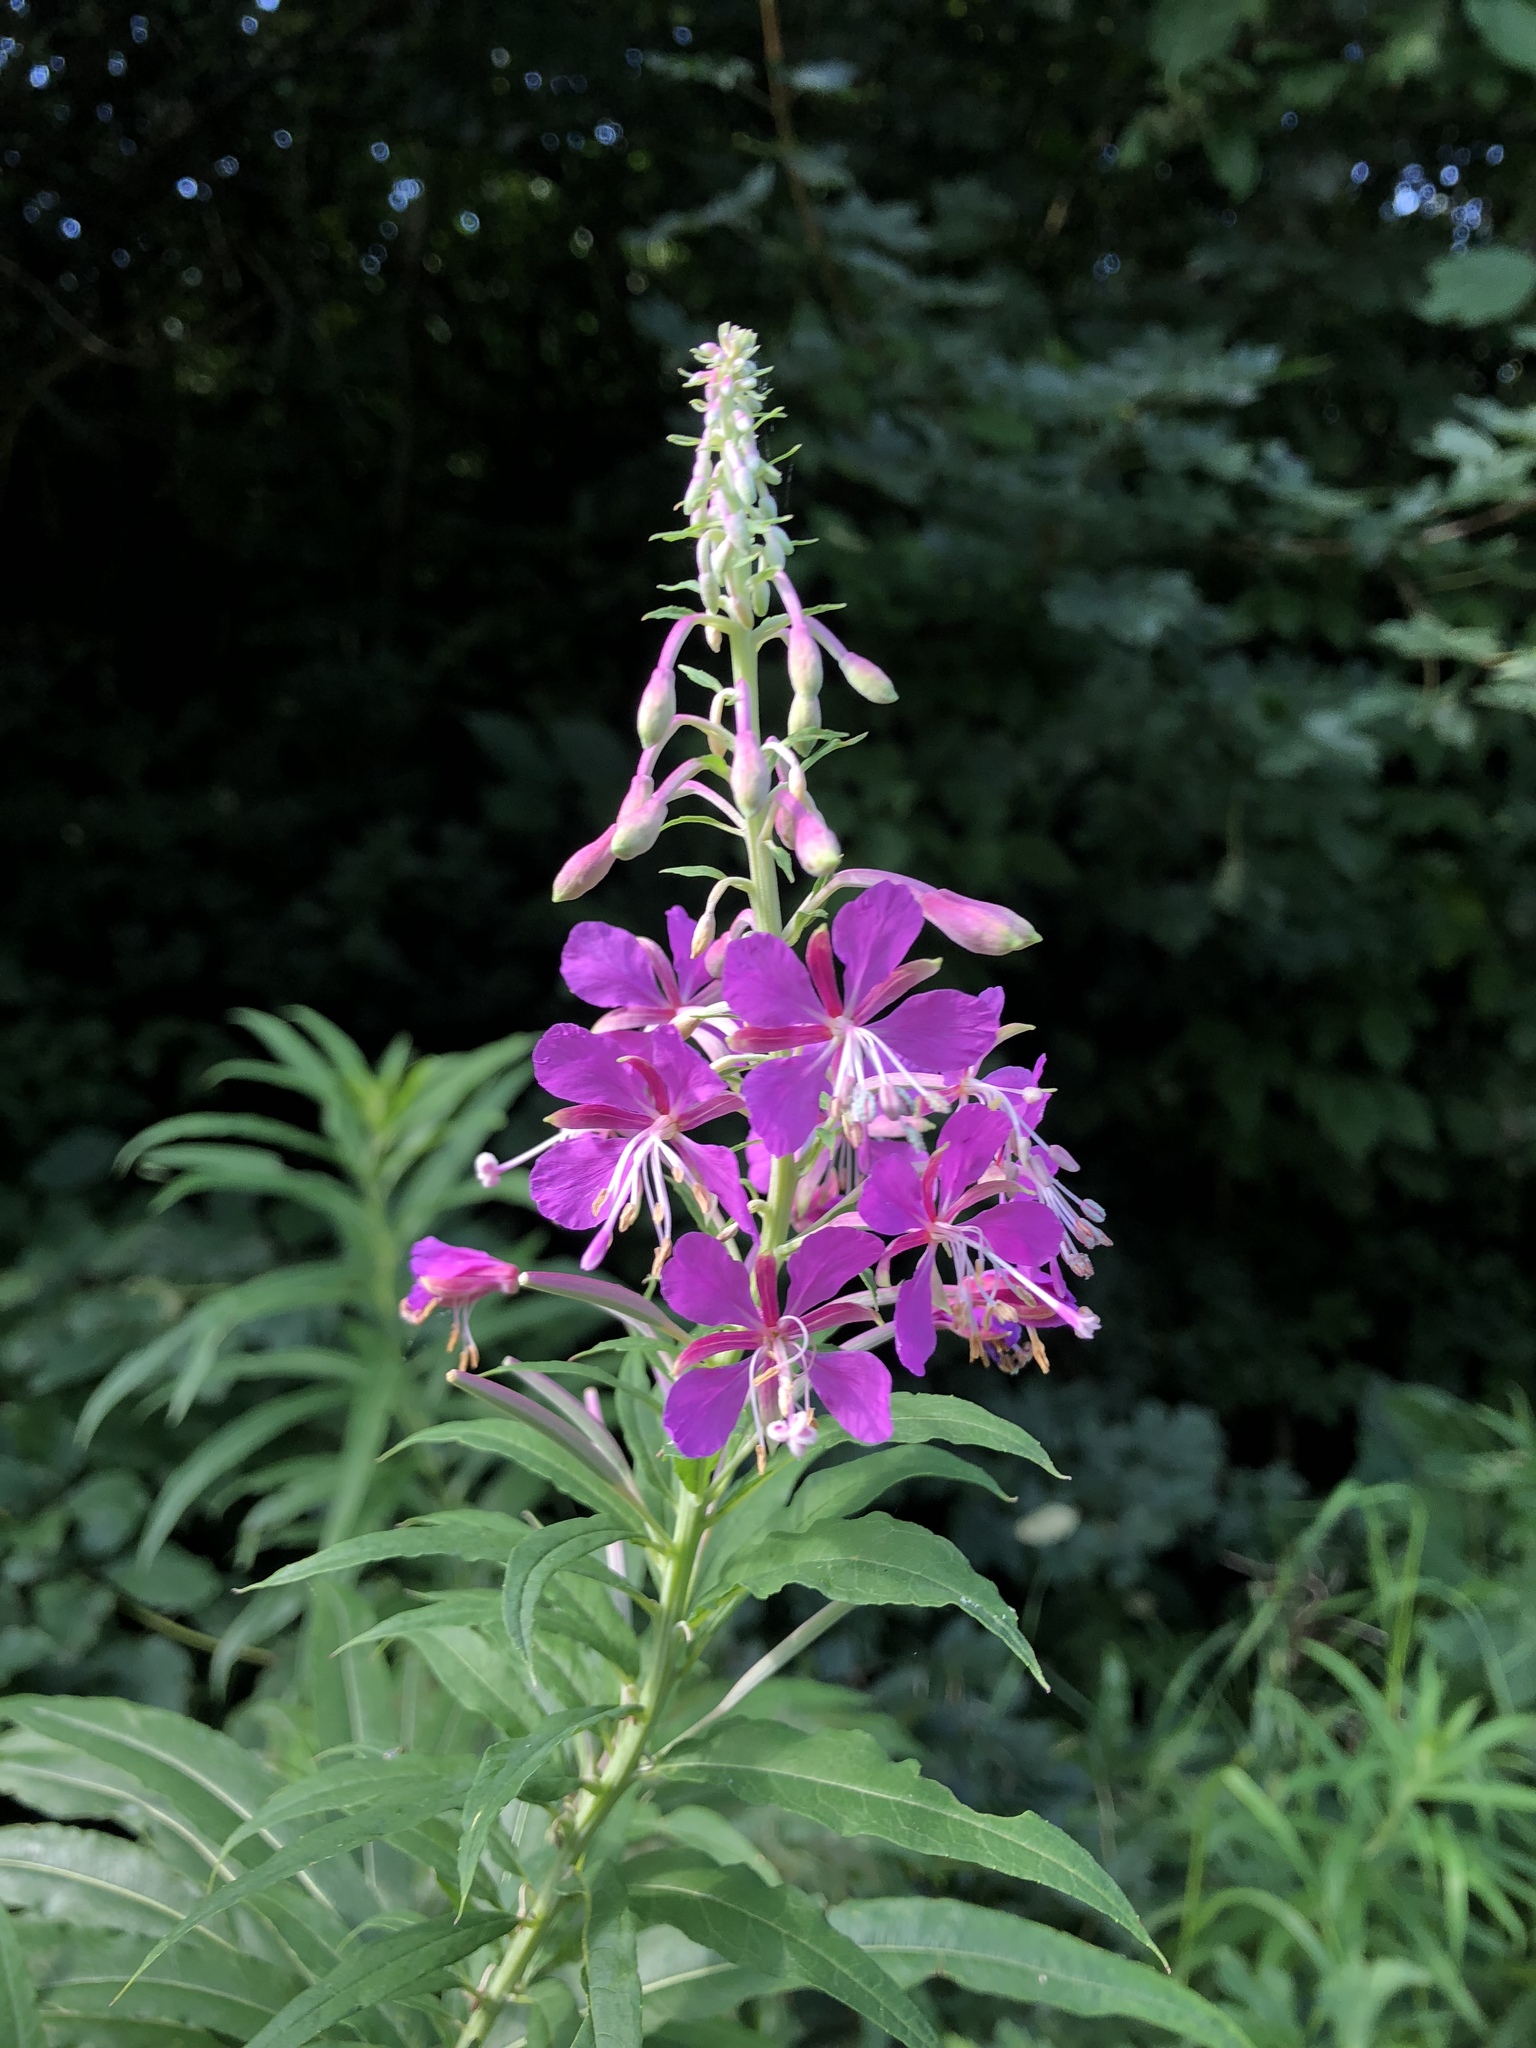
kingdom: Plantae
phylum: Tracheophyta
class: Magnoliopsida
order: Myrtales
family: Onagraceae
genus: Chamaenerion
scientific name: Chamaenerion angustifolium
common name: Fireweed
